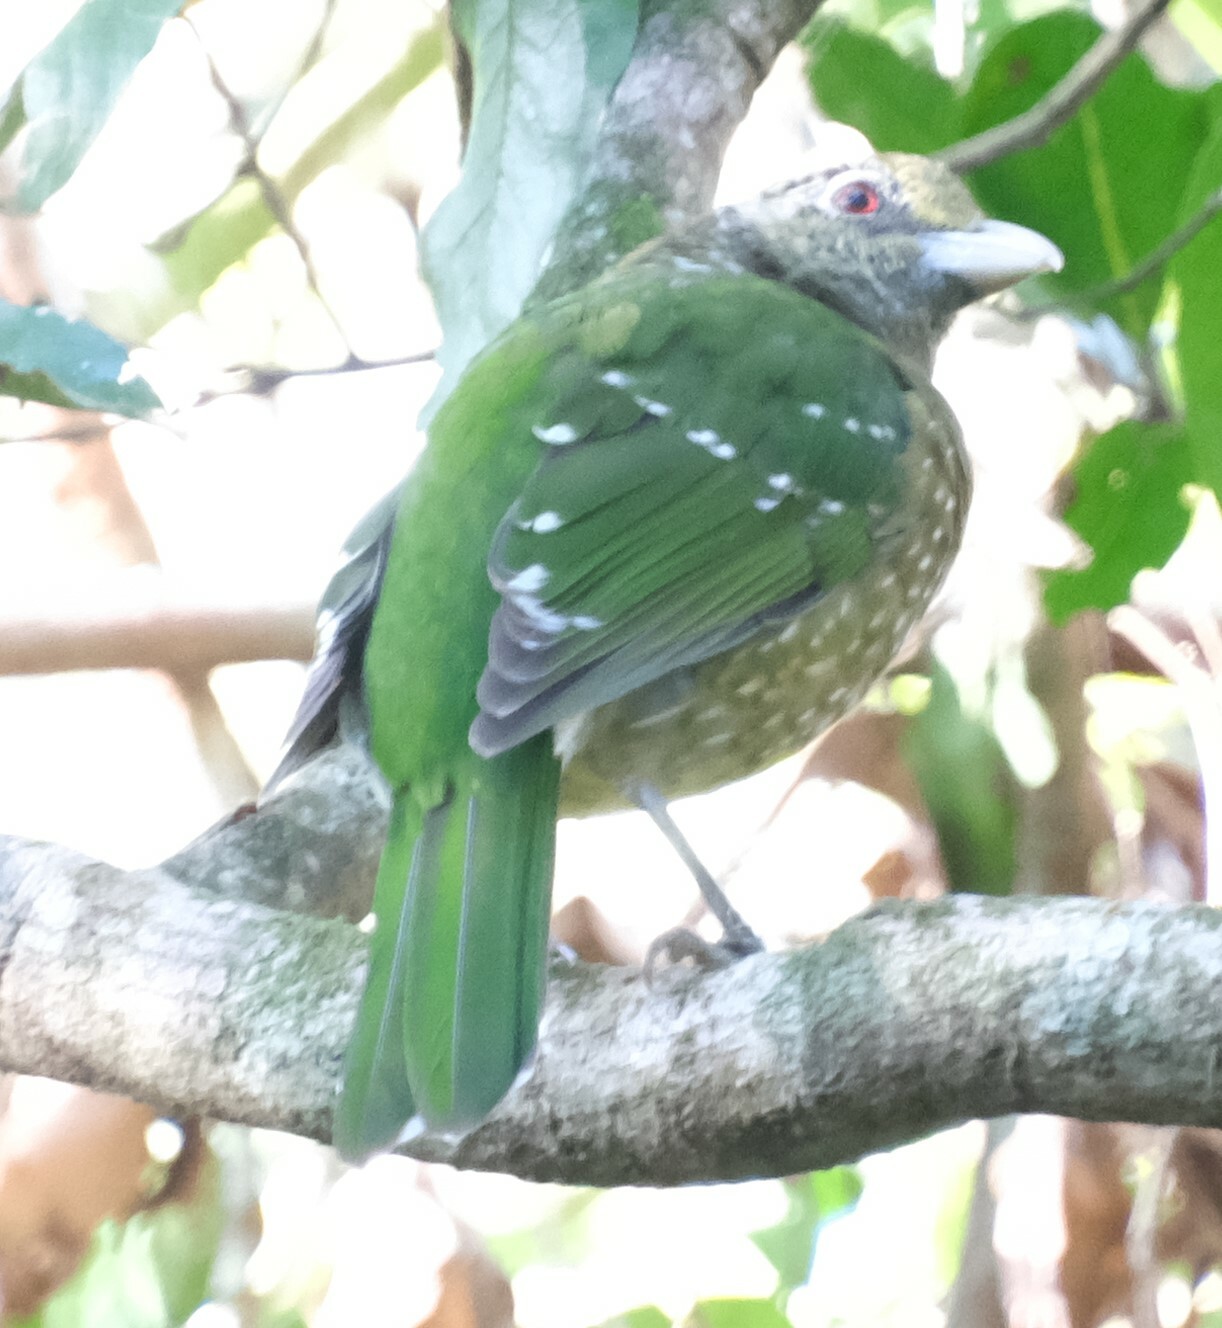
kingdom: Animalia
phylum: Chordata
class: Aves
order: Passeriformes
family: Ptilonorhynchidae
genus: Ailuroedus
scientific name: Ailuroedus crassirostris
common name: Green catbird
